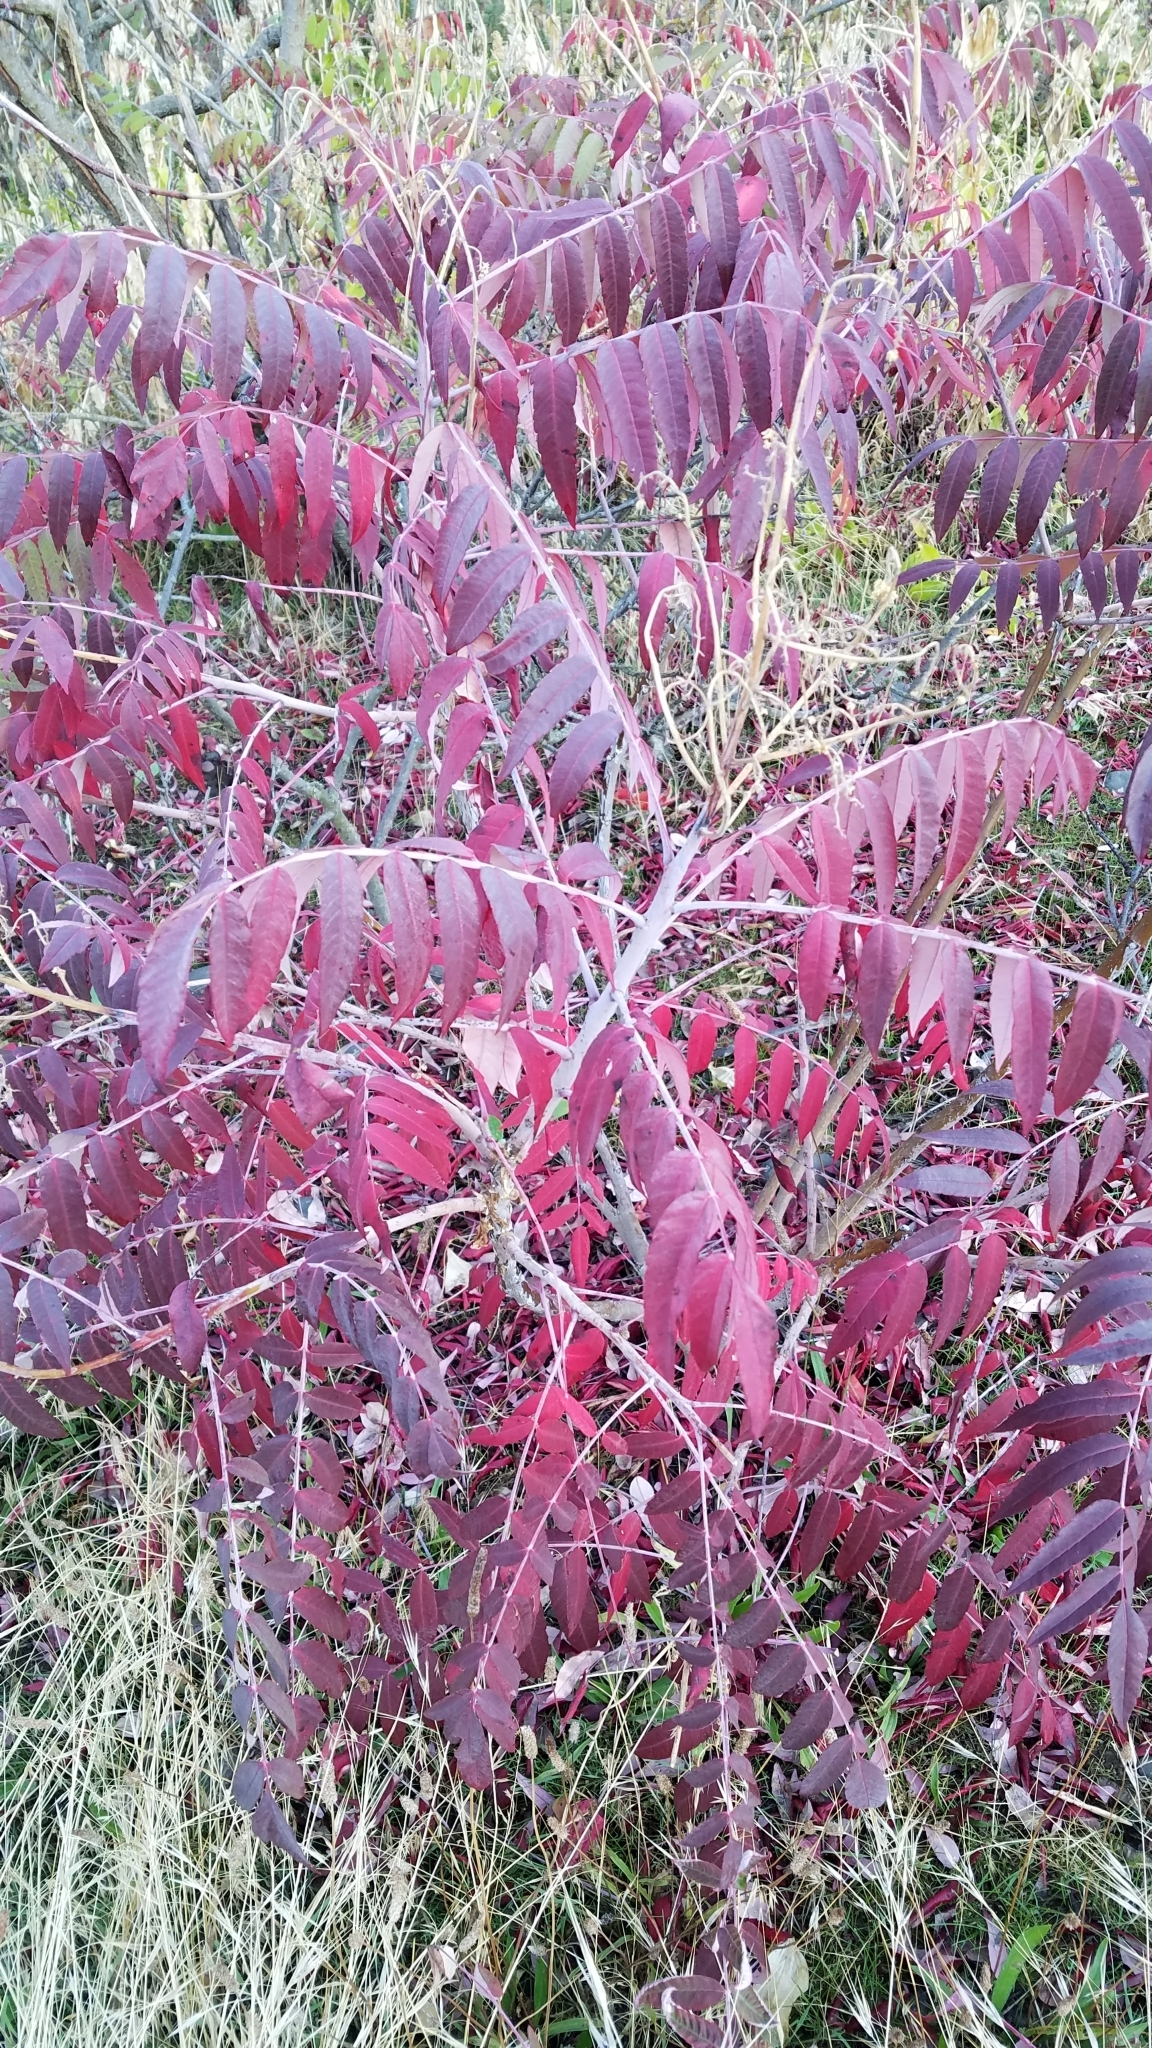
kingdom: Plantae
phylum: Tracheophyta
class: Magnoliopsida
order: Sapindales
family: Anacardiaceae
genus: Rhus
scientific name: Rhus glabra
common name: Scarlet sumac
